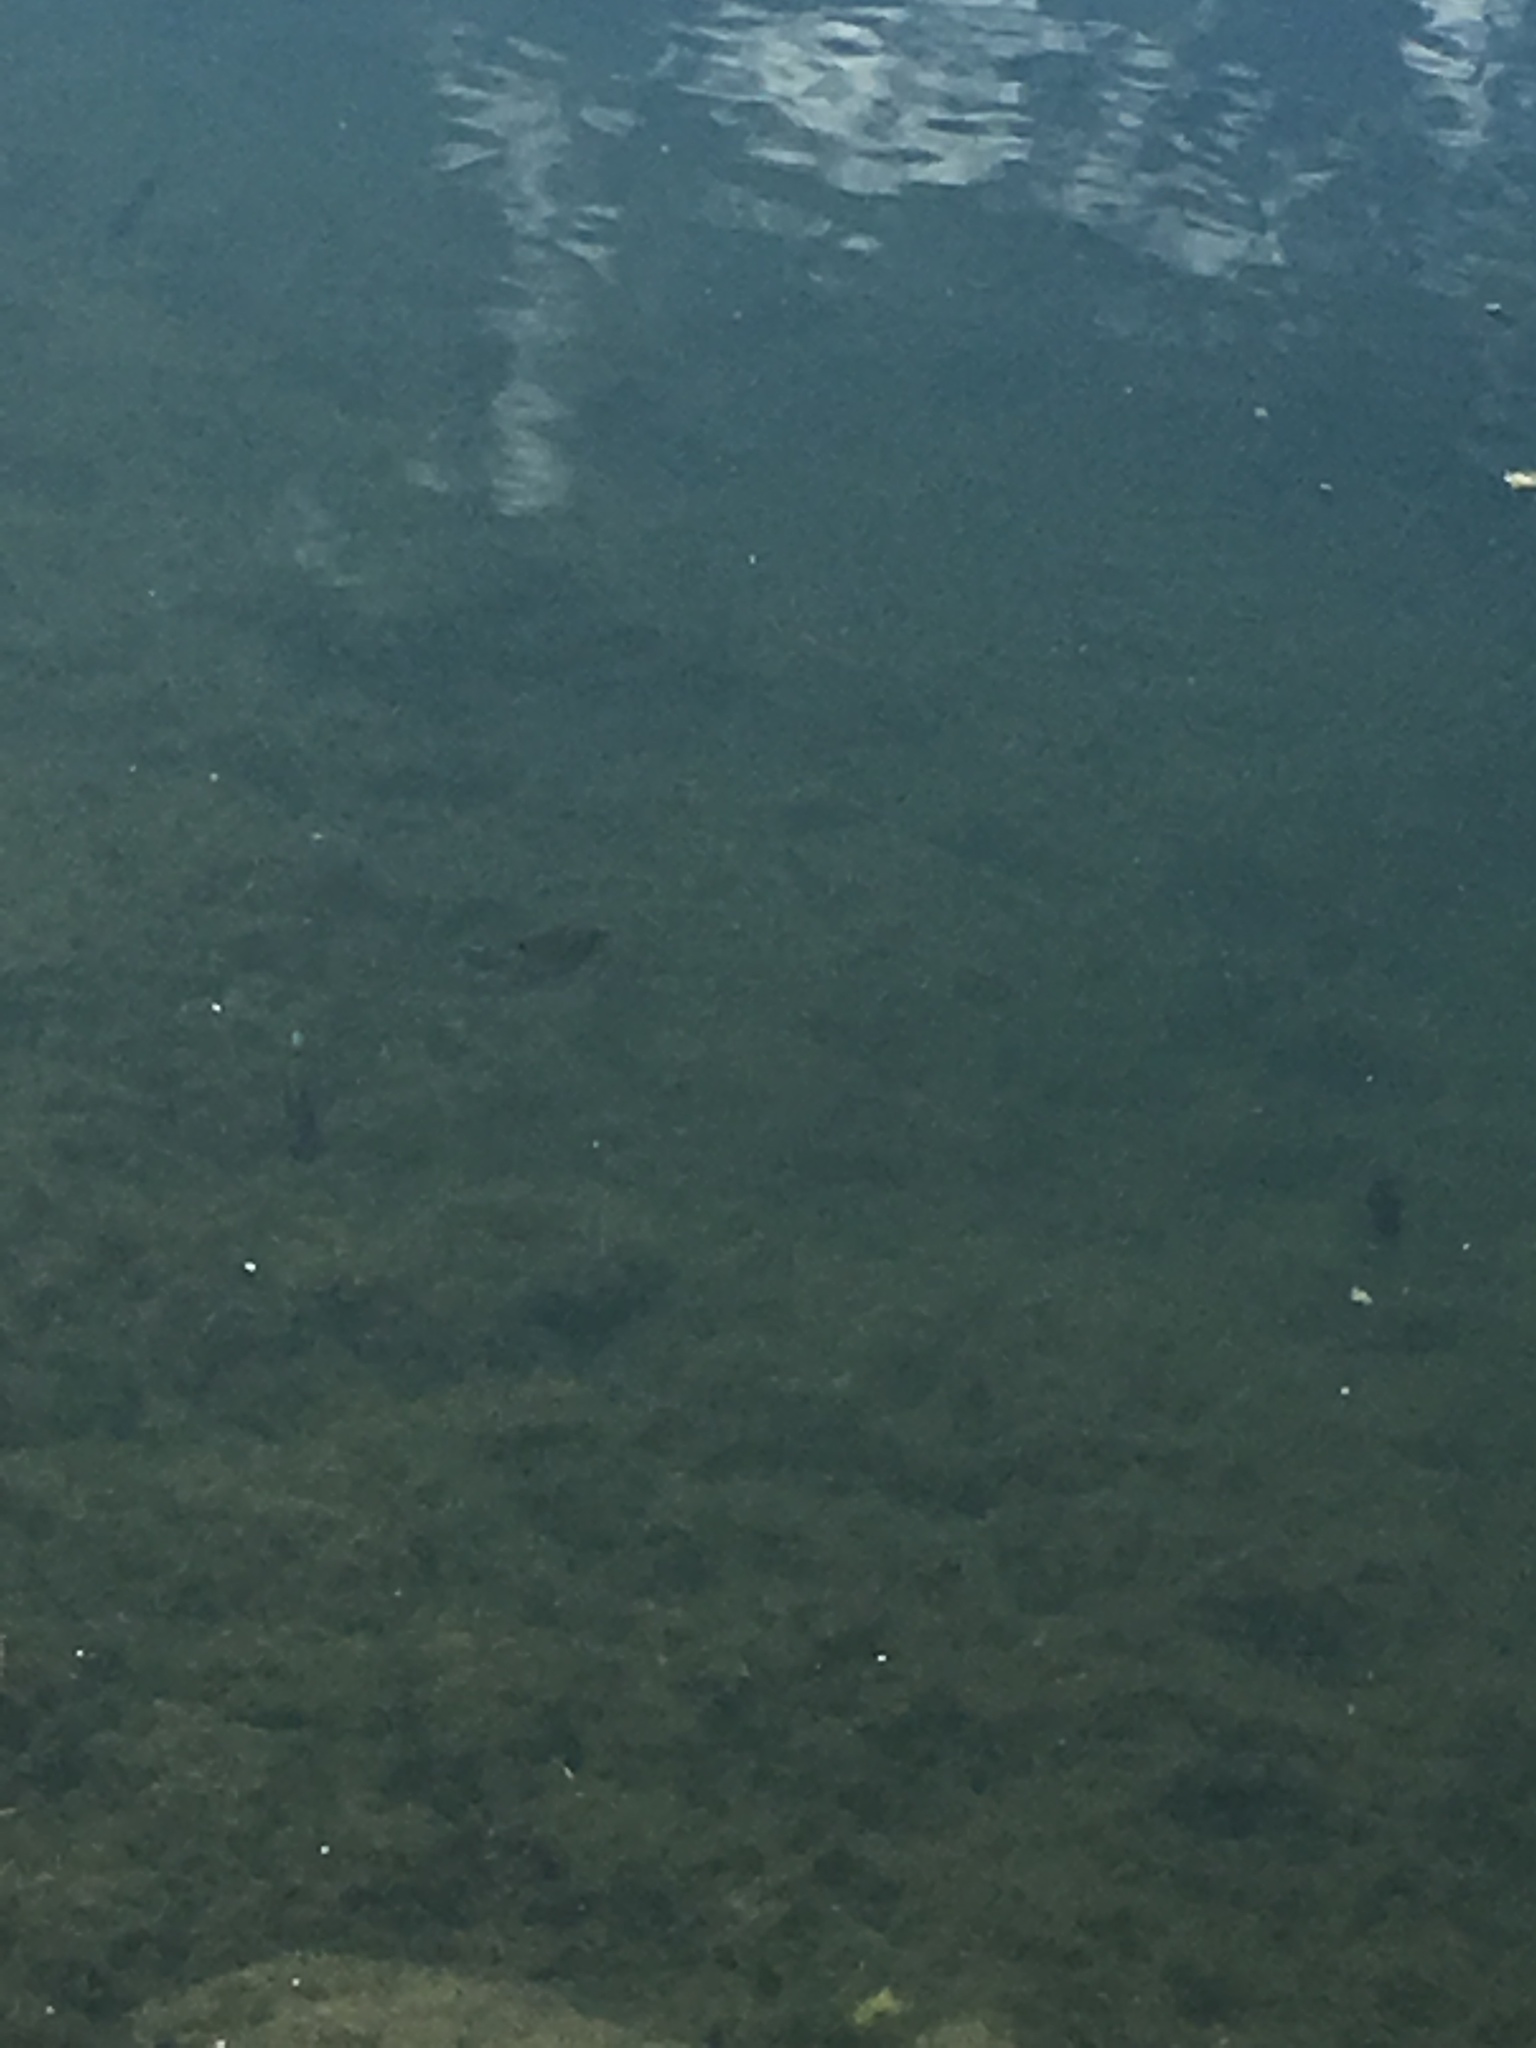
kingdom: Animalia
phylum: Chordata
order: Perciformes
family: Centrarchidae
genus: Lepomis
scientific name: Lepomis
